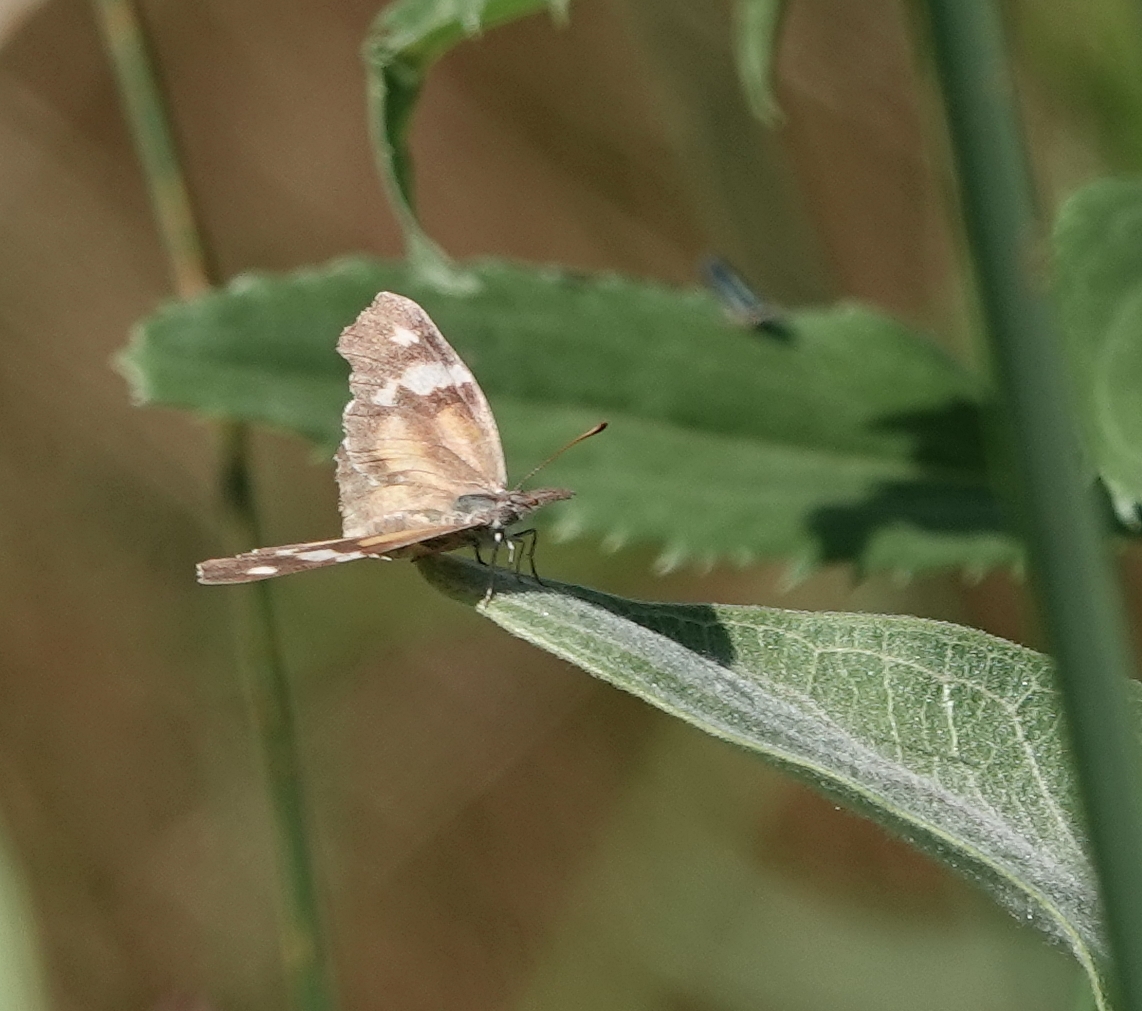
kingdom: Animalia
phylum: Arthropoda
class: Insecta
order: Lepidoptera
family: Nymphalidae
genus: Libytheana
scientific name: Libytheana carinenta
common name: American snout
